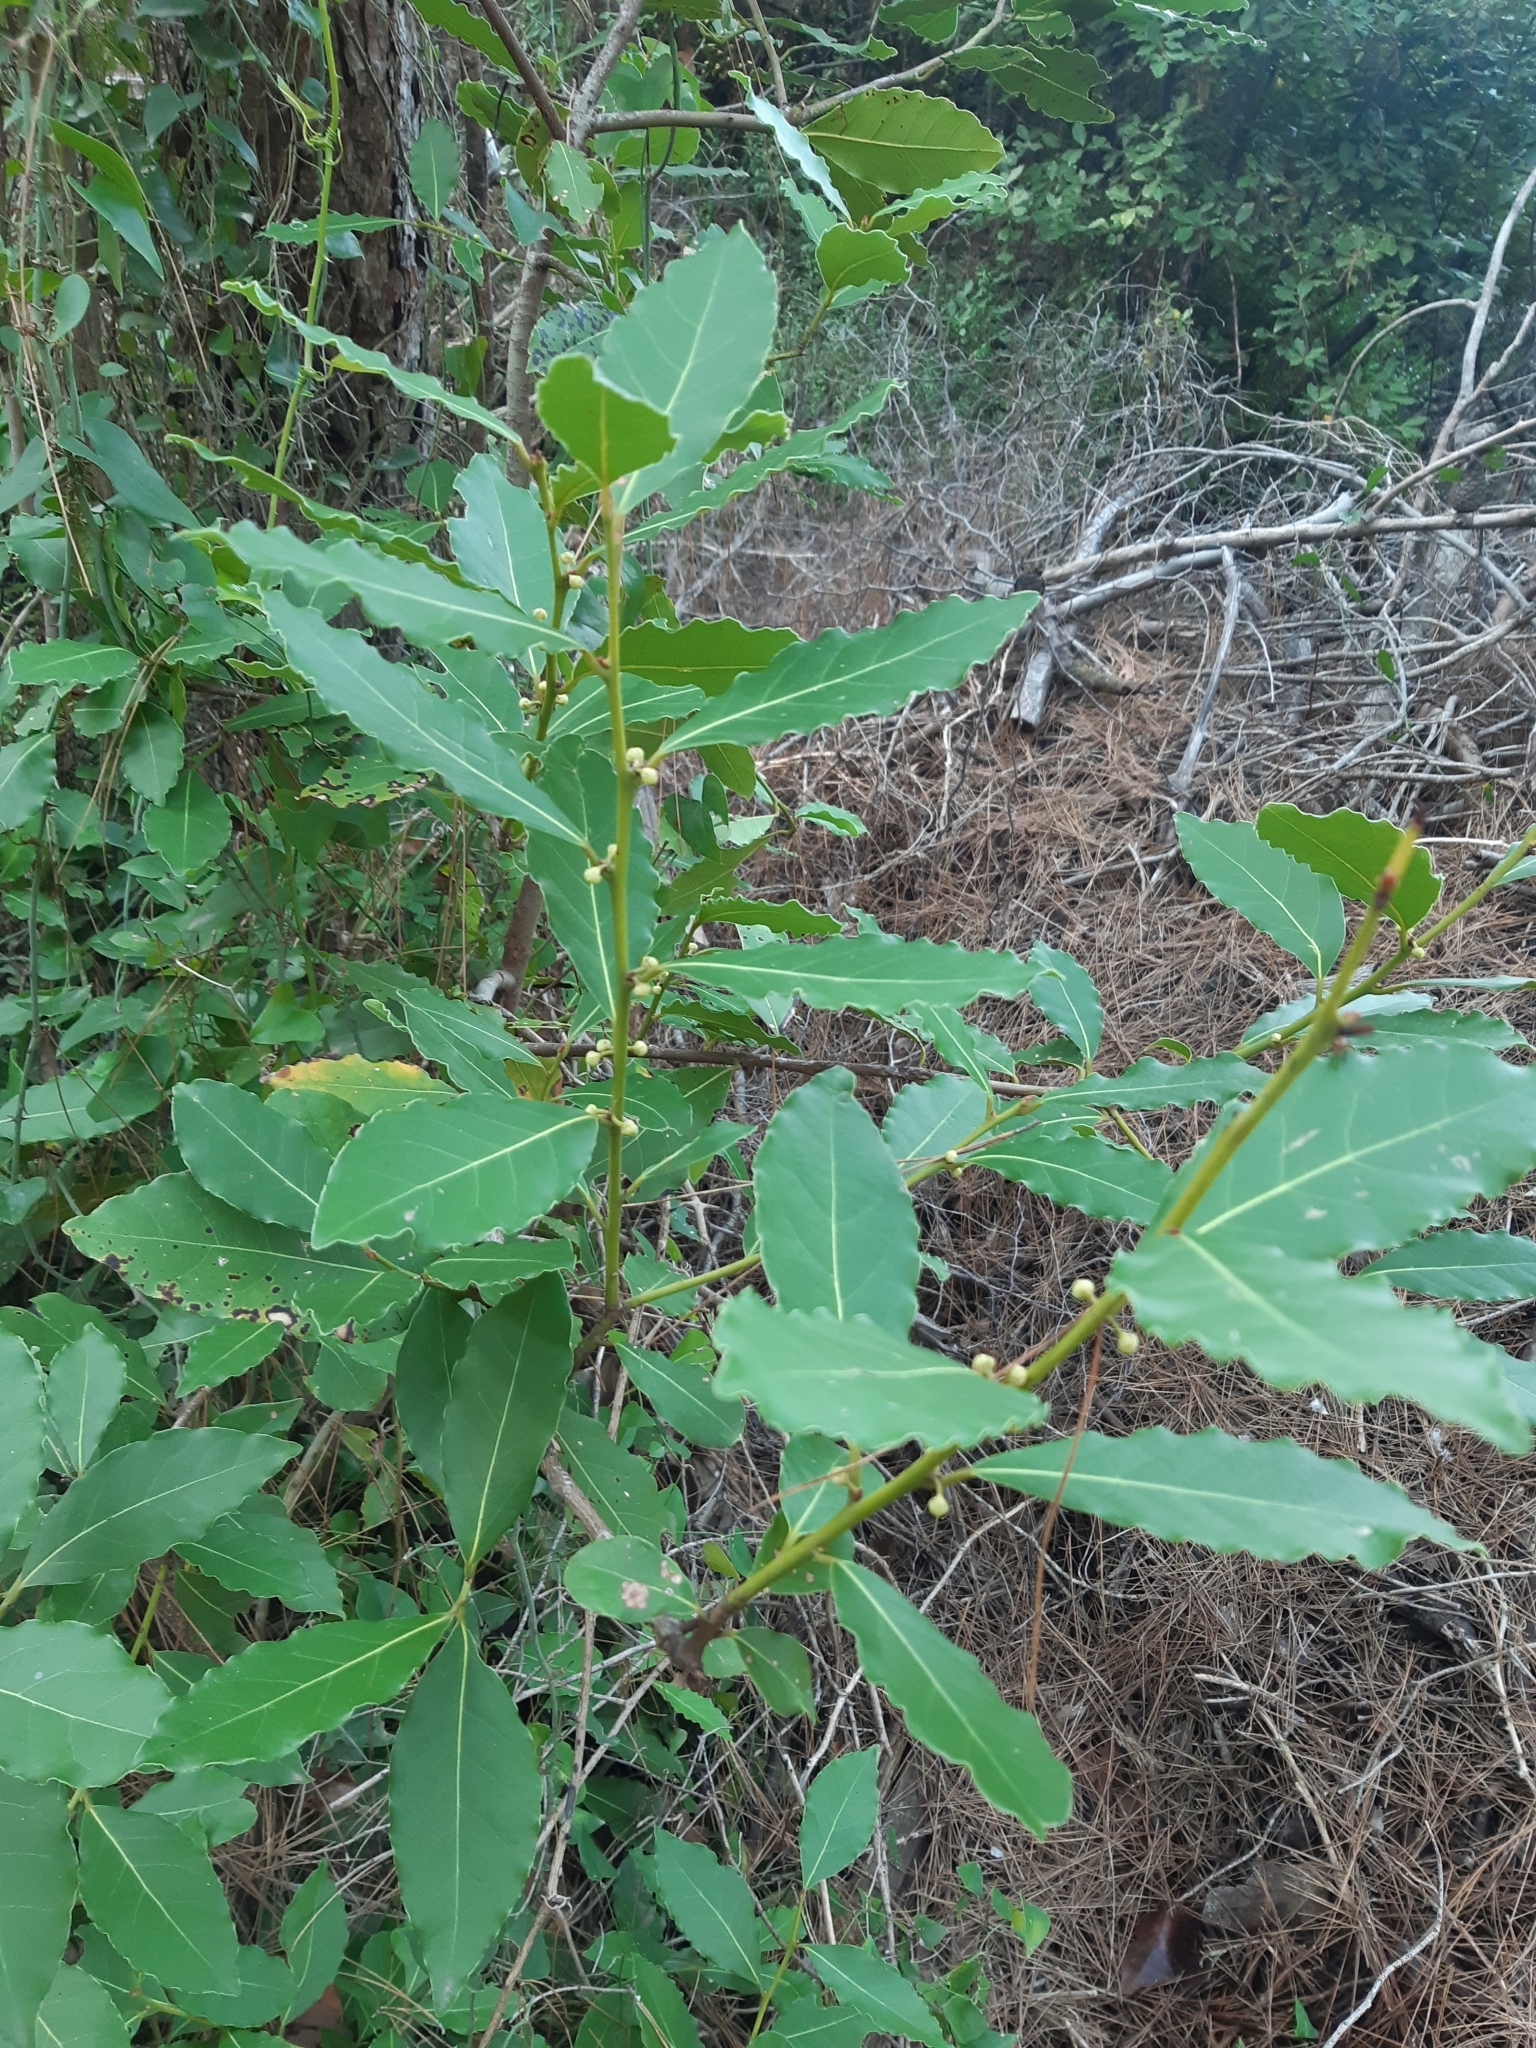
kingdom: Plantae
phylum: Tracheophyta
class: Magnoliopsida
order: Laurales
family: Lauraceae
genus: Laurus
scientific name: Laurus nobilis
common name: Bay
